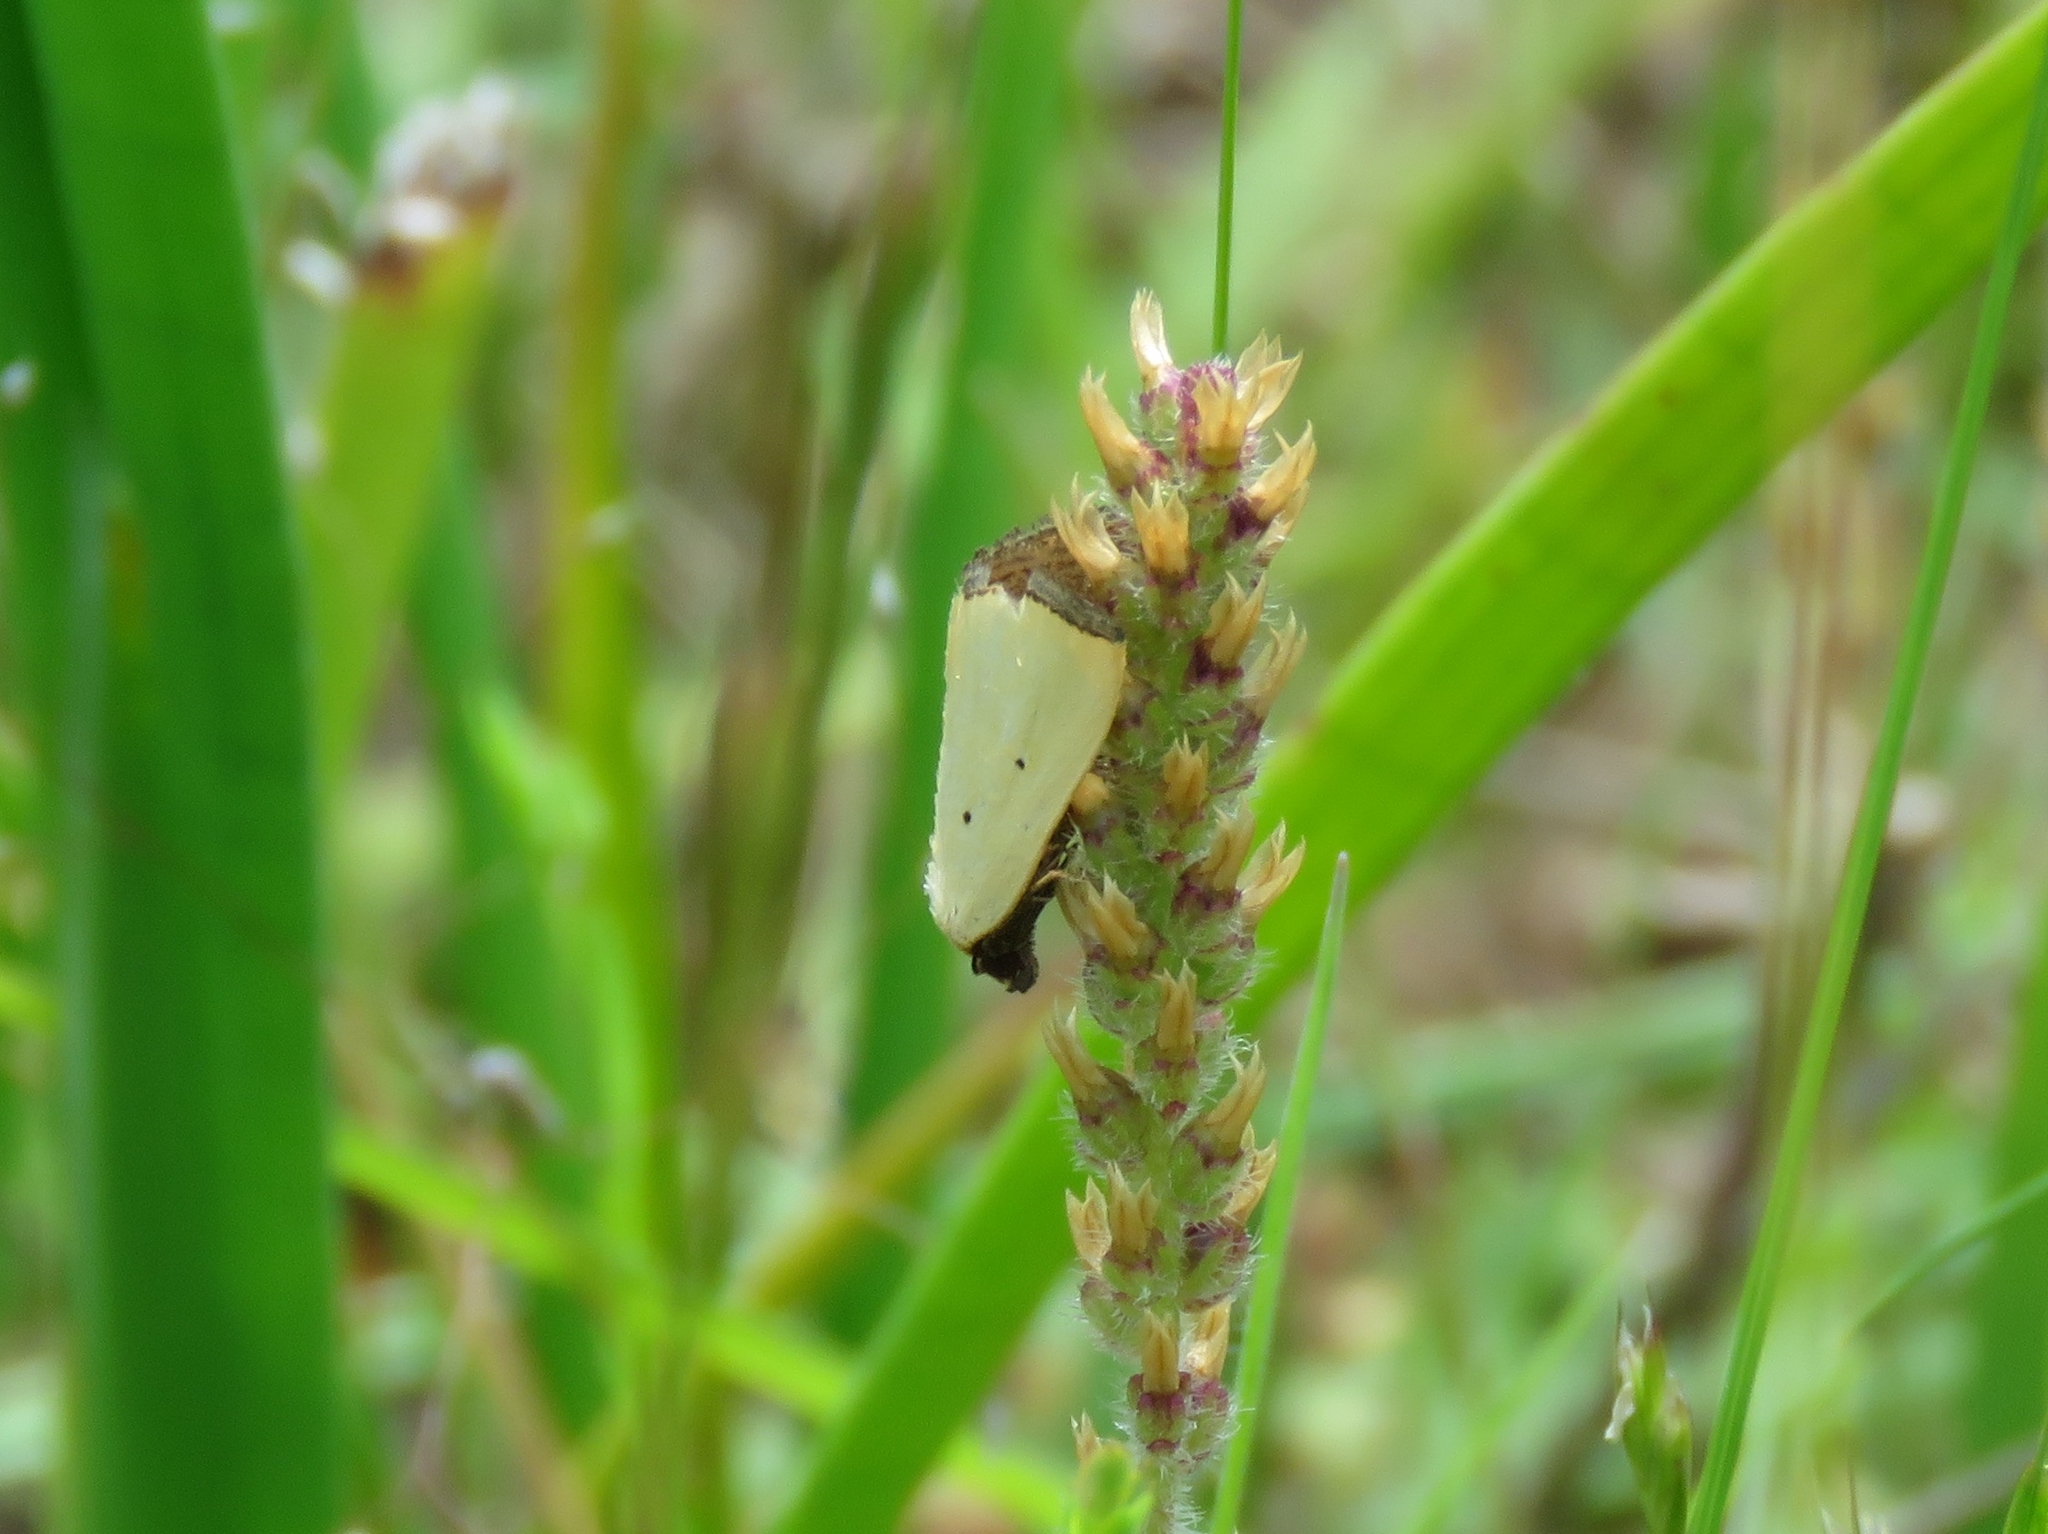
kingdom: Animalia
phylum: Arthropoda
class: Insecta
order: Lepidoptera
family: Noctuidae
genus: Marimatha
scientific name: Marimatha nigrofimbria
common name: Black-bordered lemon moth
